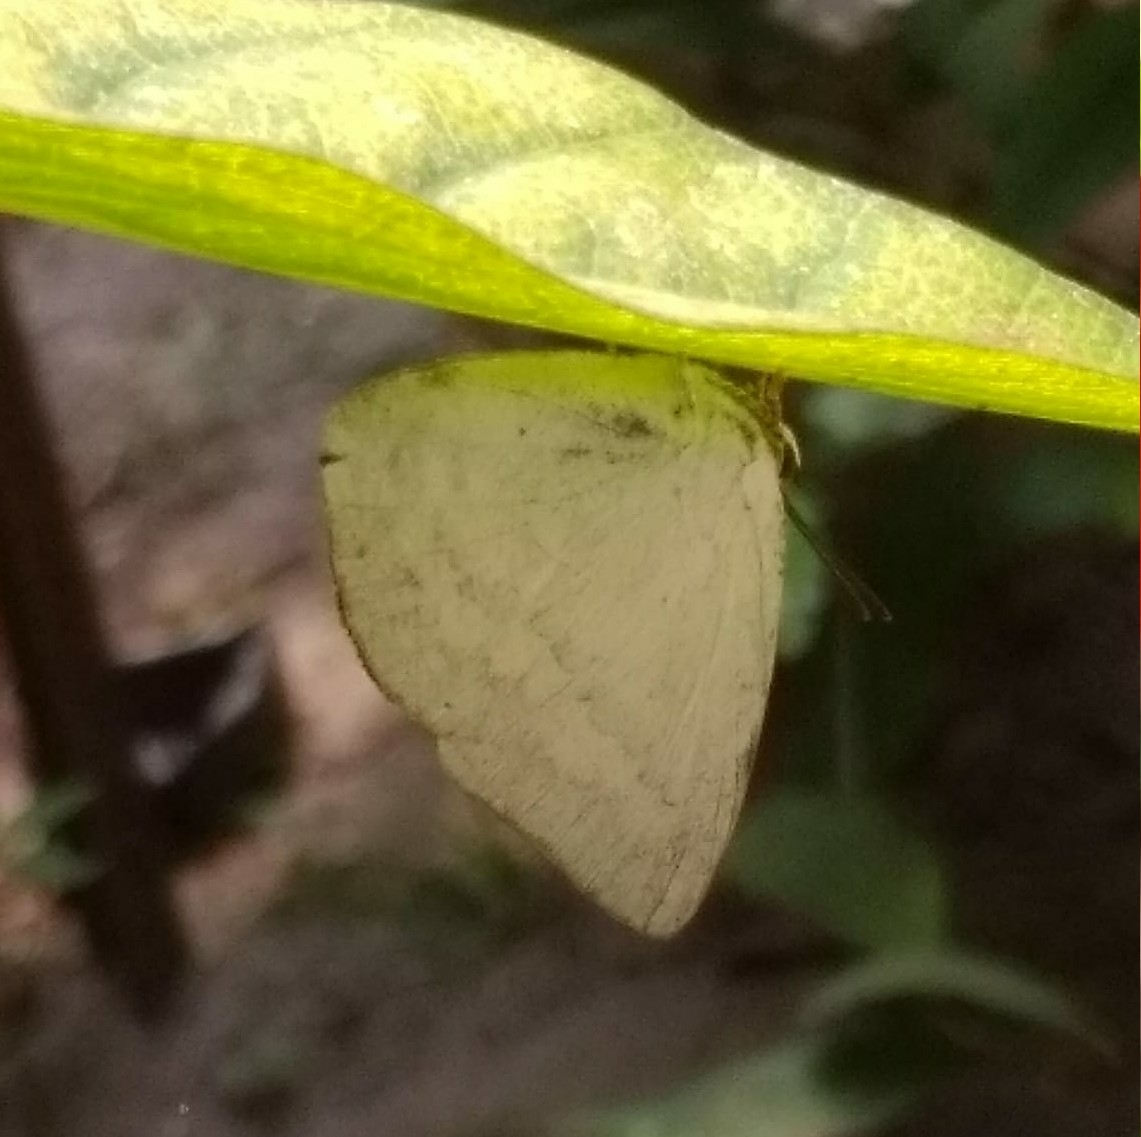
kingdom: Animalia
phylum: Arthropoda
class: Insecta
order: Lepidoptera
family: Lycaenidae
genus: Curetis
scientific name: Curetis thetis
